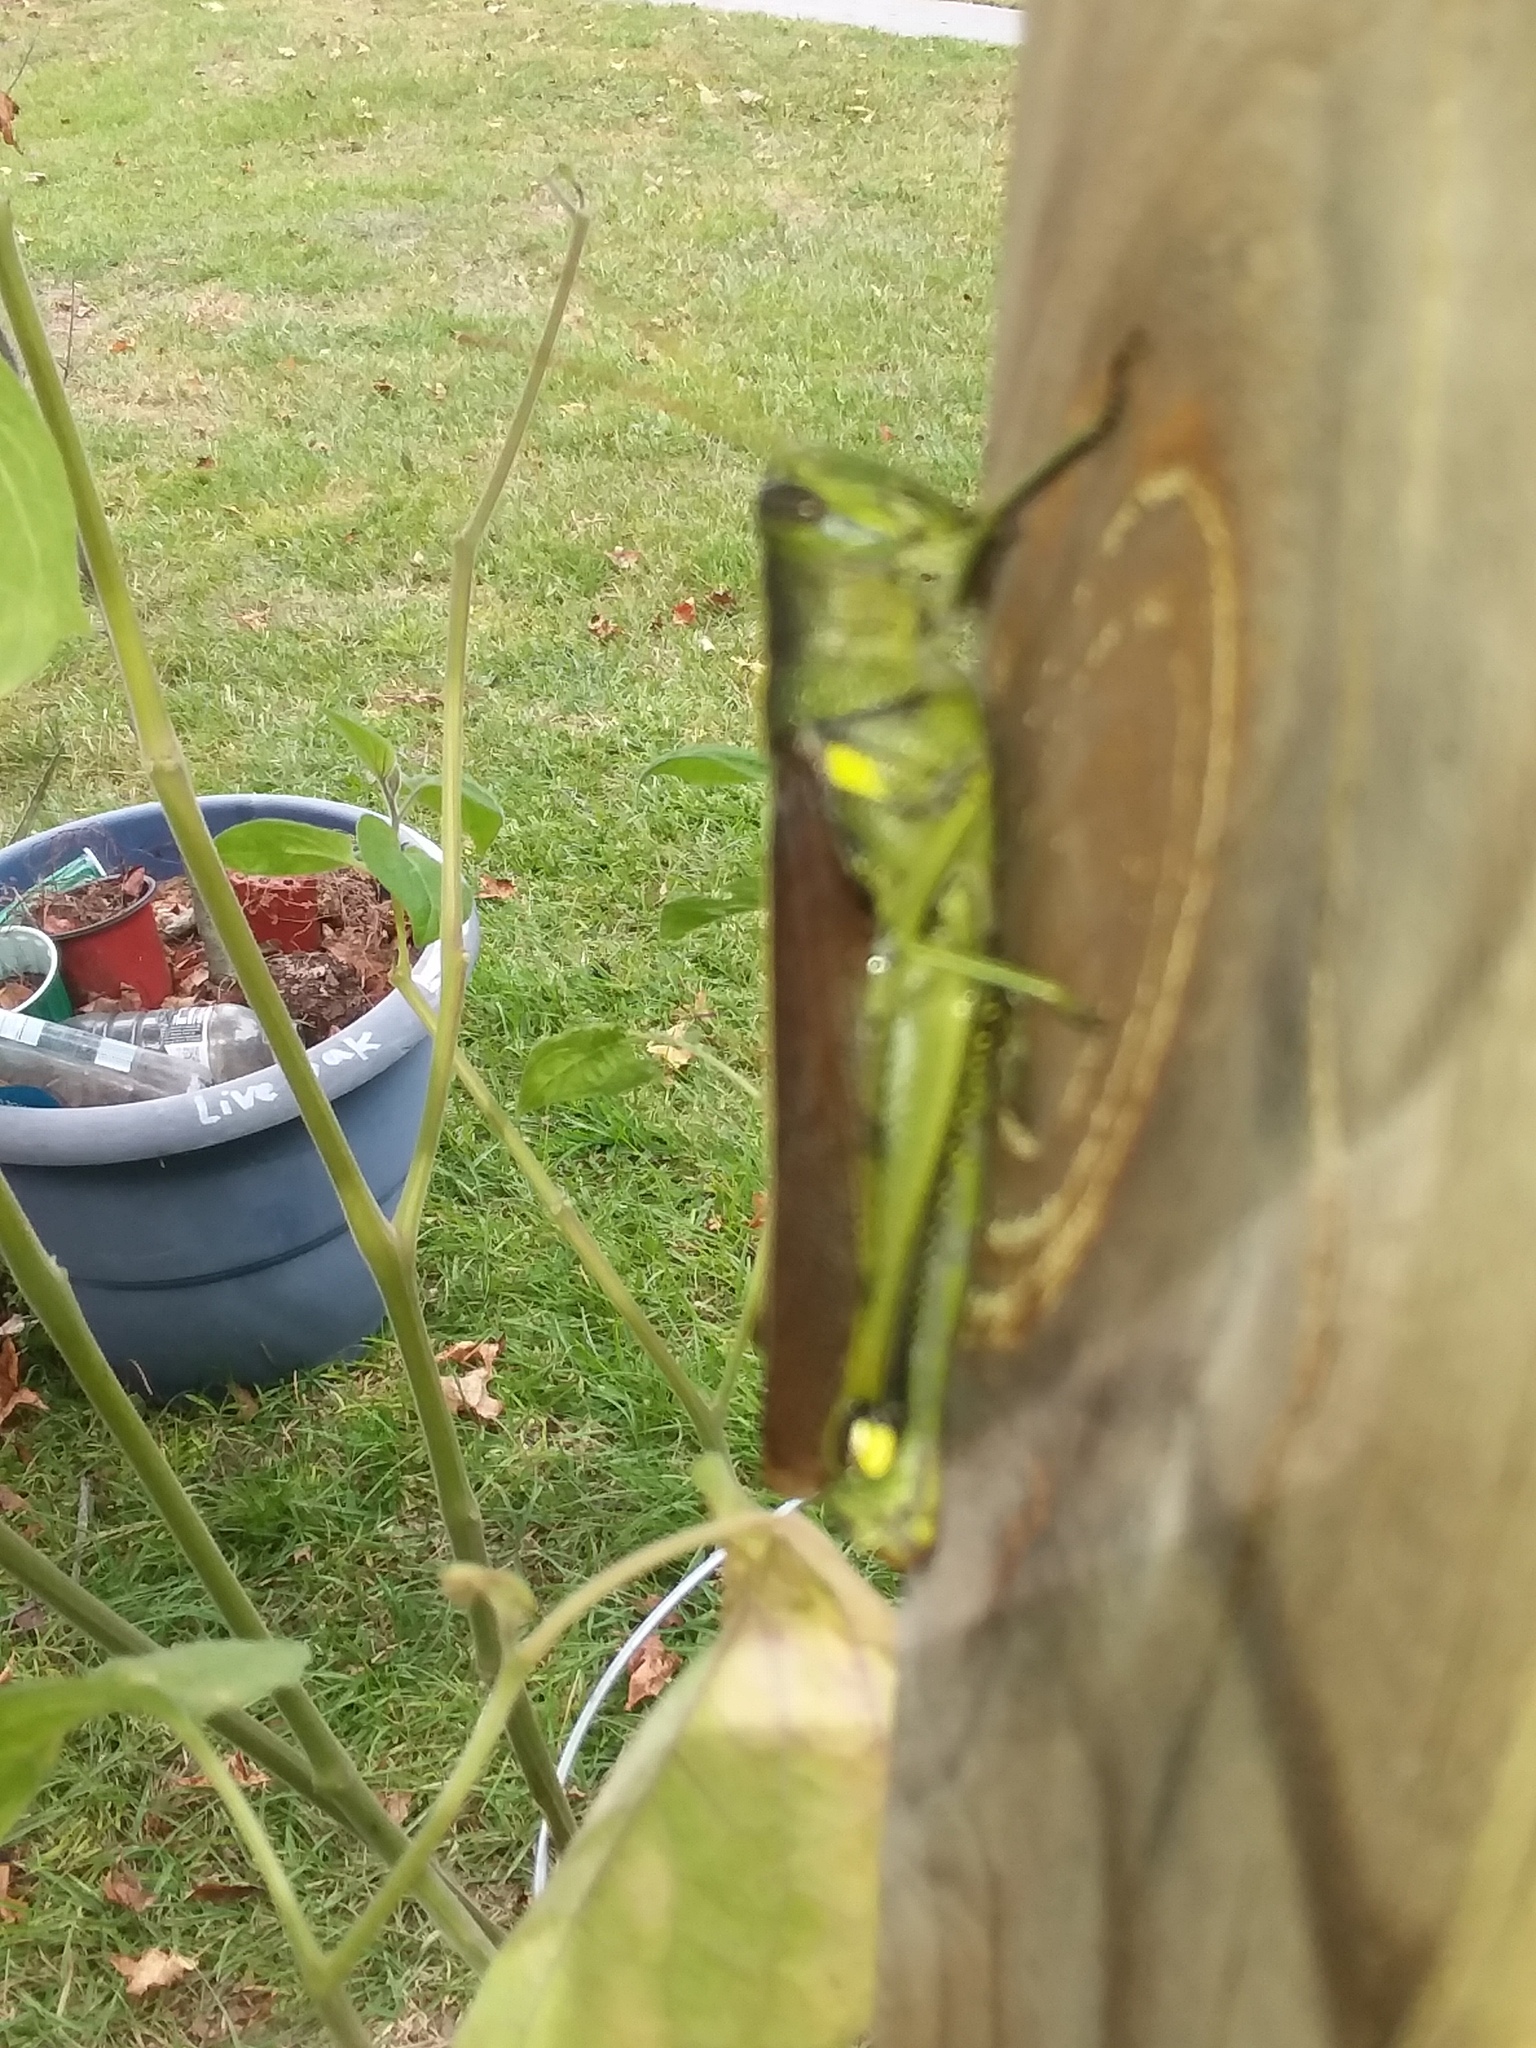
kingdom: Animalia
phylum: Arthropoda
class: Insecta
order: Orthoptera
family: Acrididae
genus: Schistocerca
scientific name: Schistocerca obscura
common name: Obscure bird grasshopper
